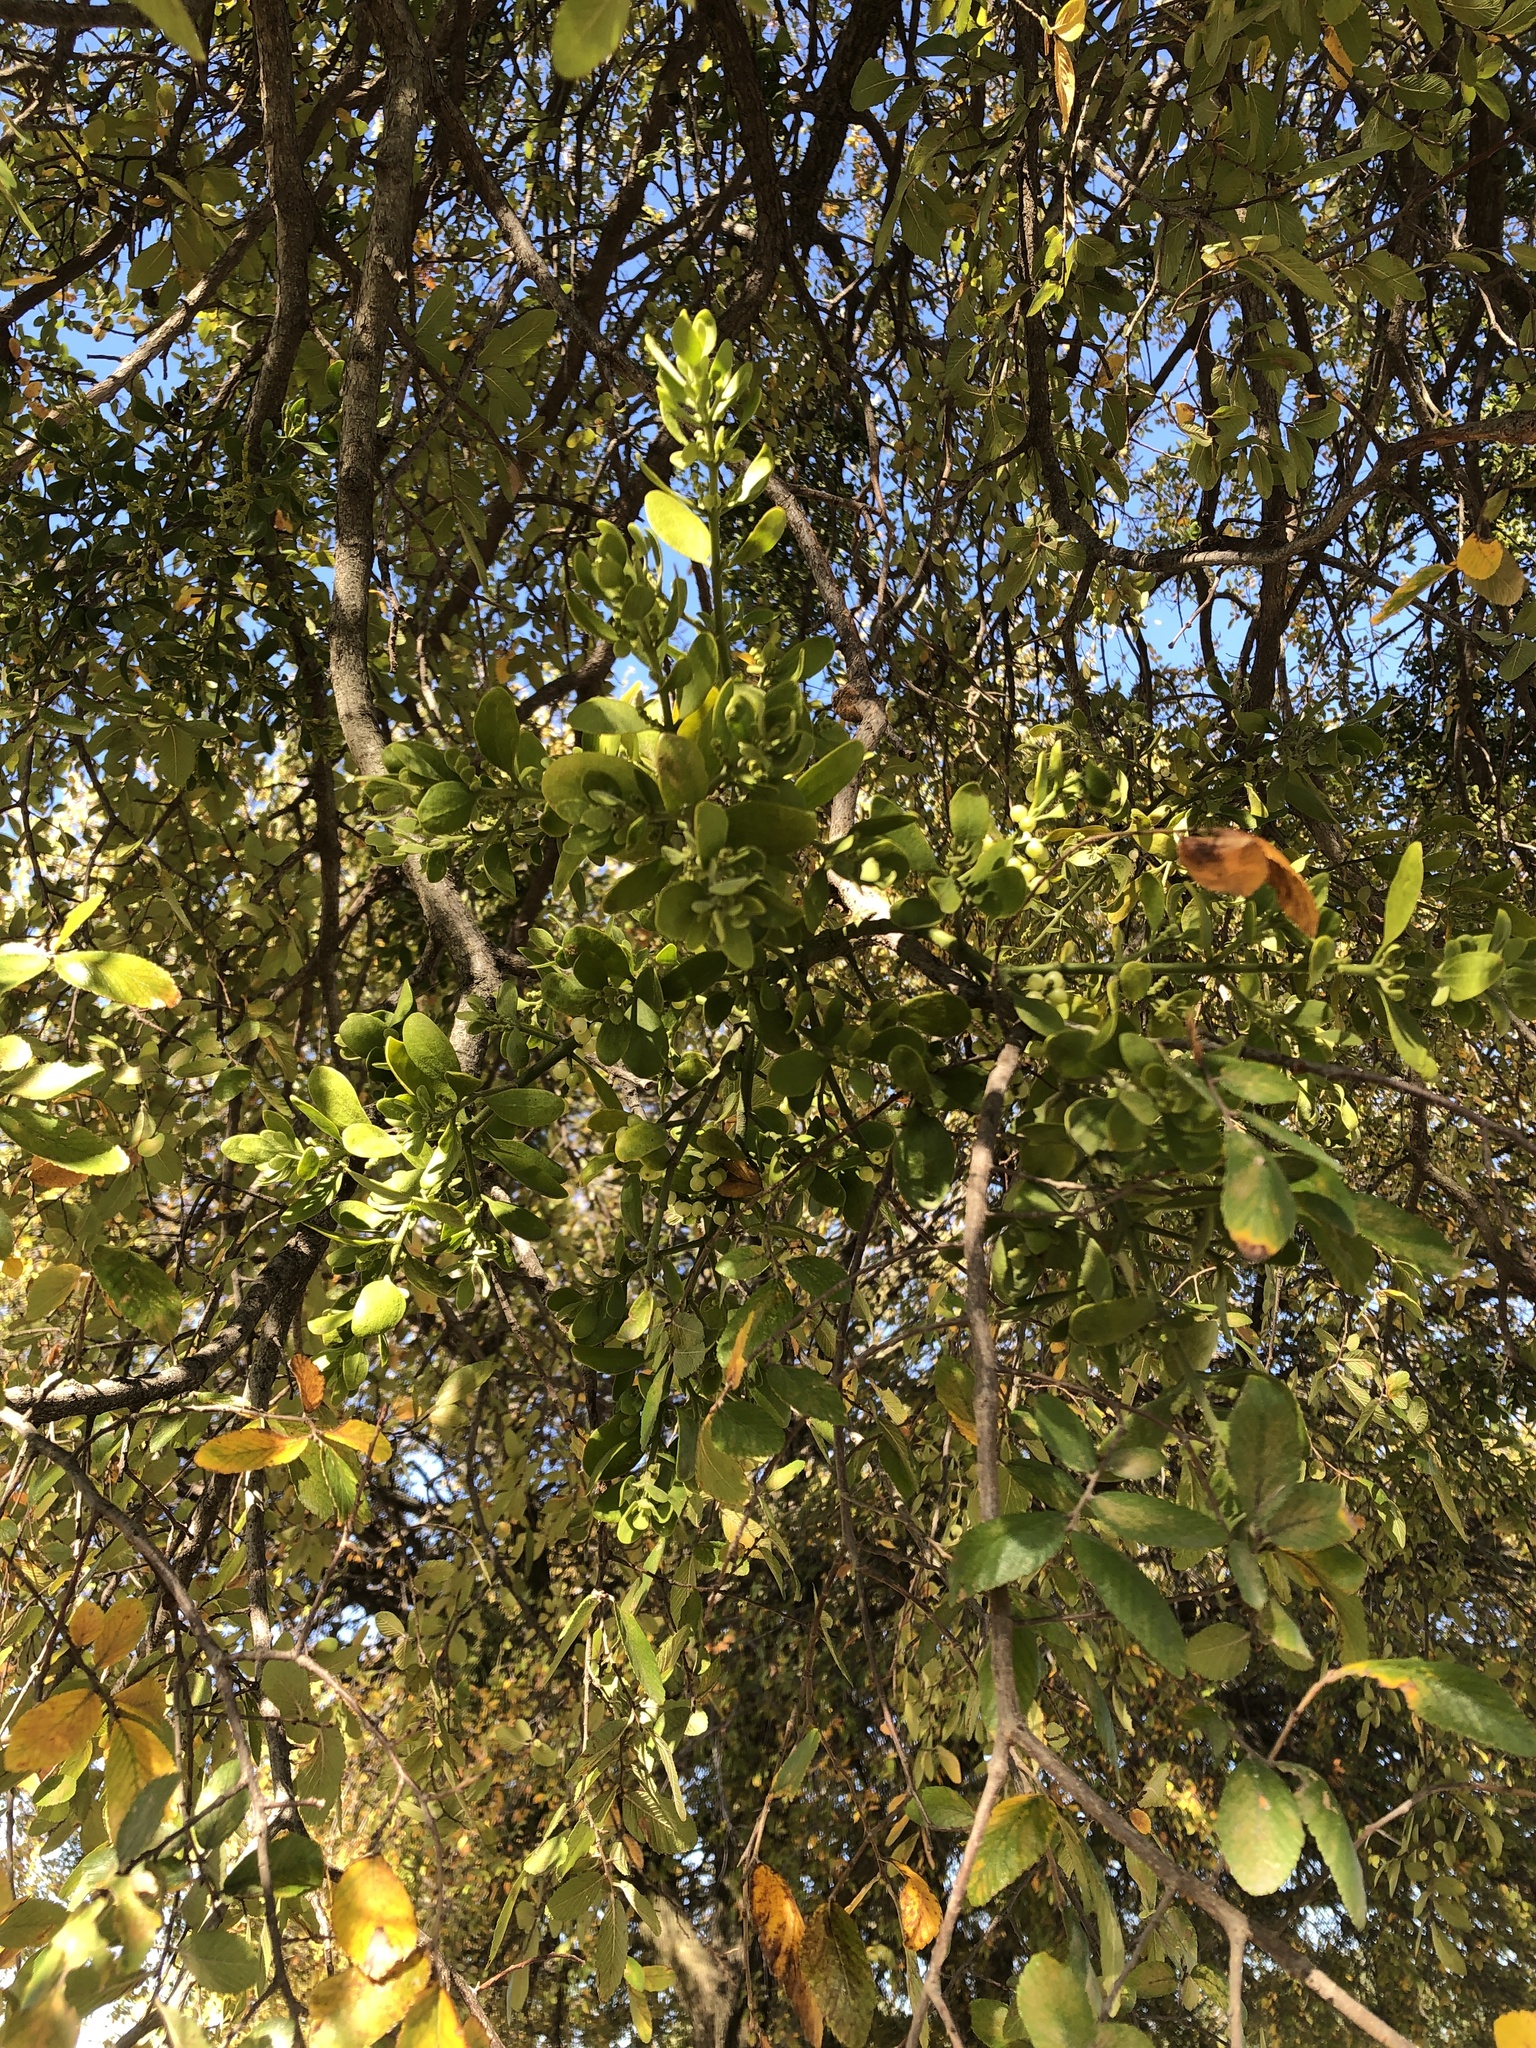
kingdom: Plantae
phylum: Tracheophyta
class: Magnoliopsida
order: Santalales
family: Viscaceae
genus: Phoradendron
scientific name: Phoradendron leucarpum
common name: Pacific mistletoe
